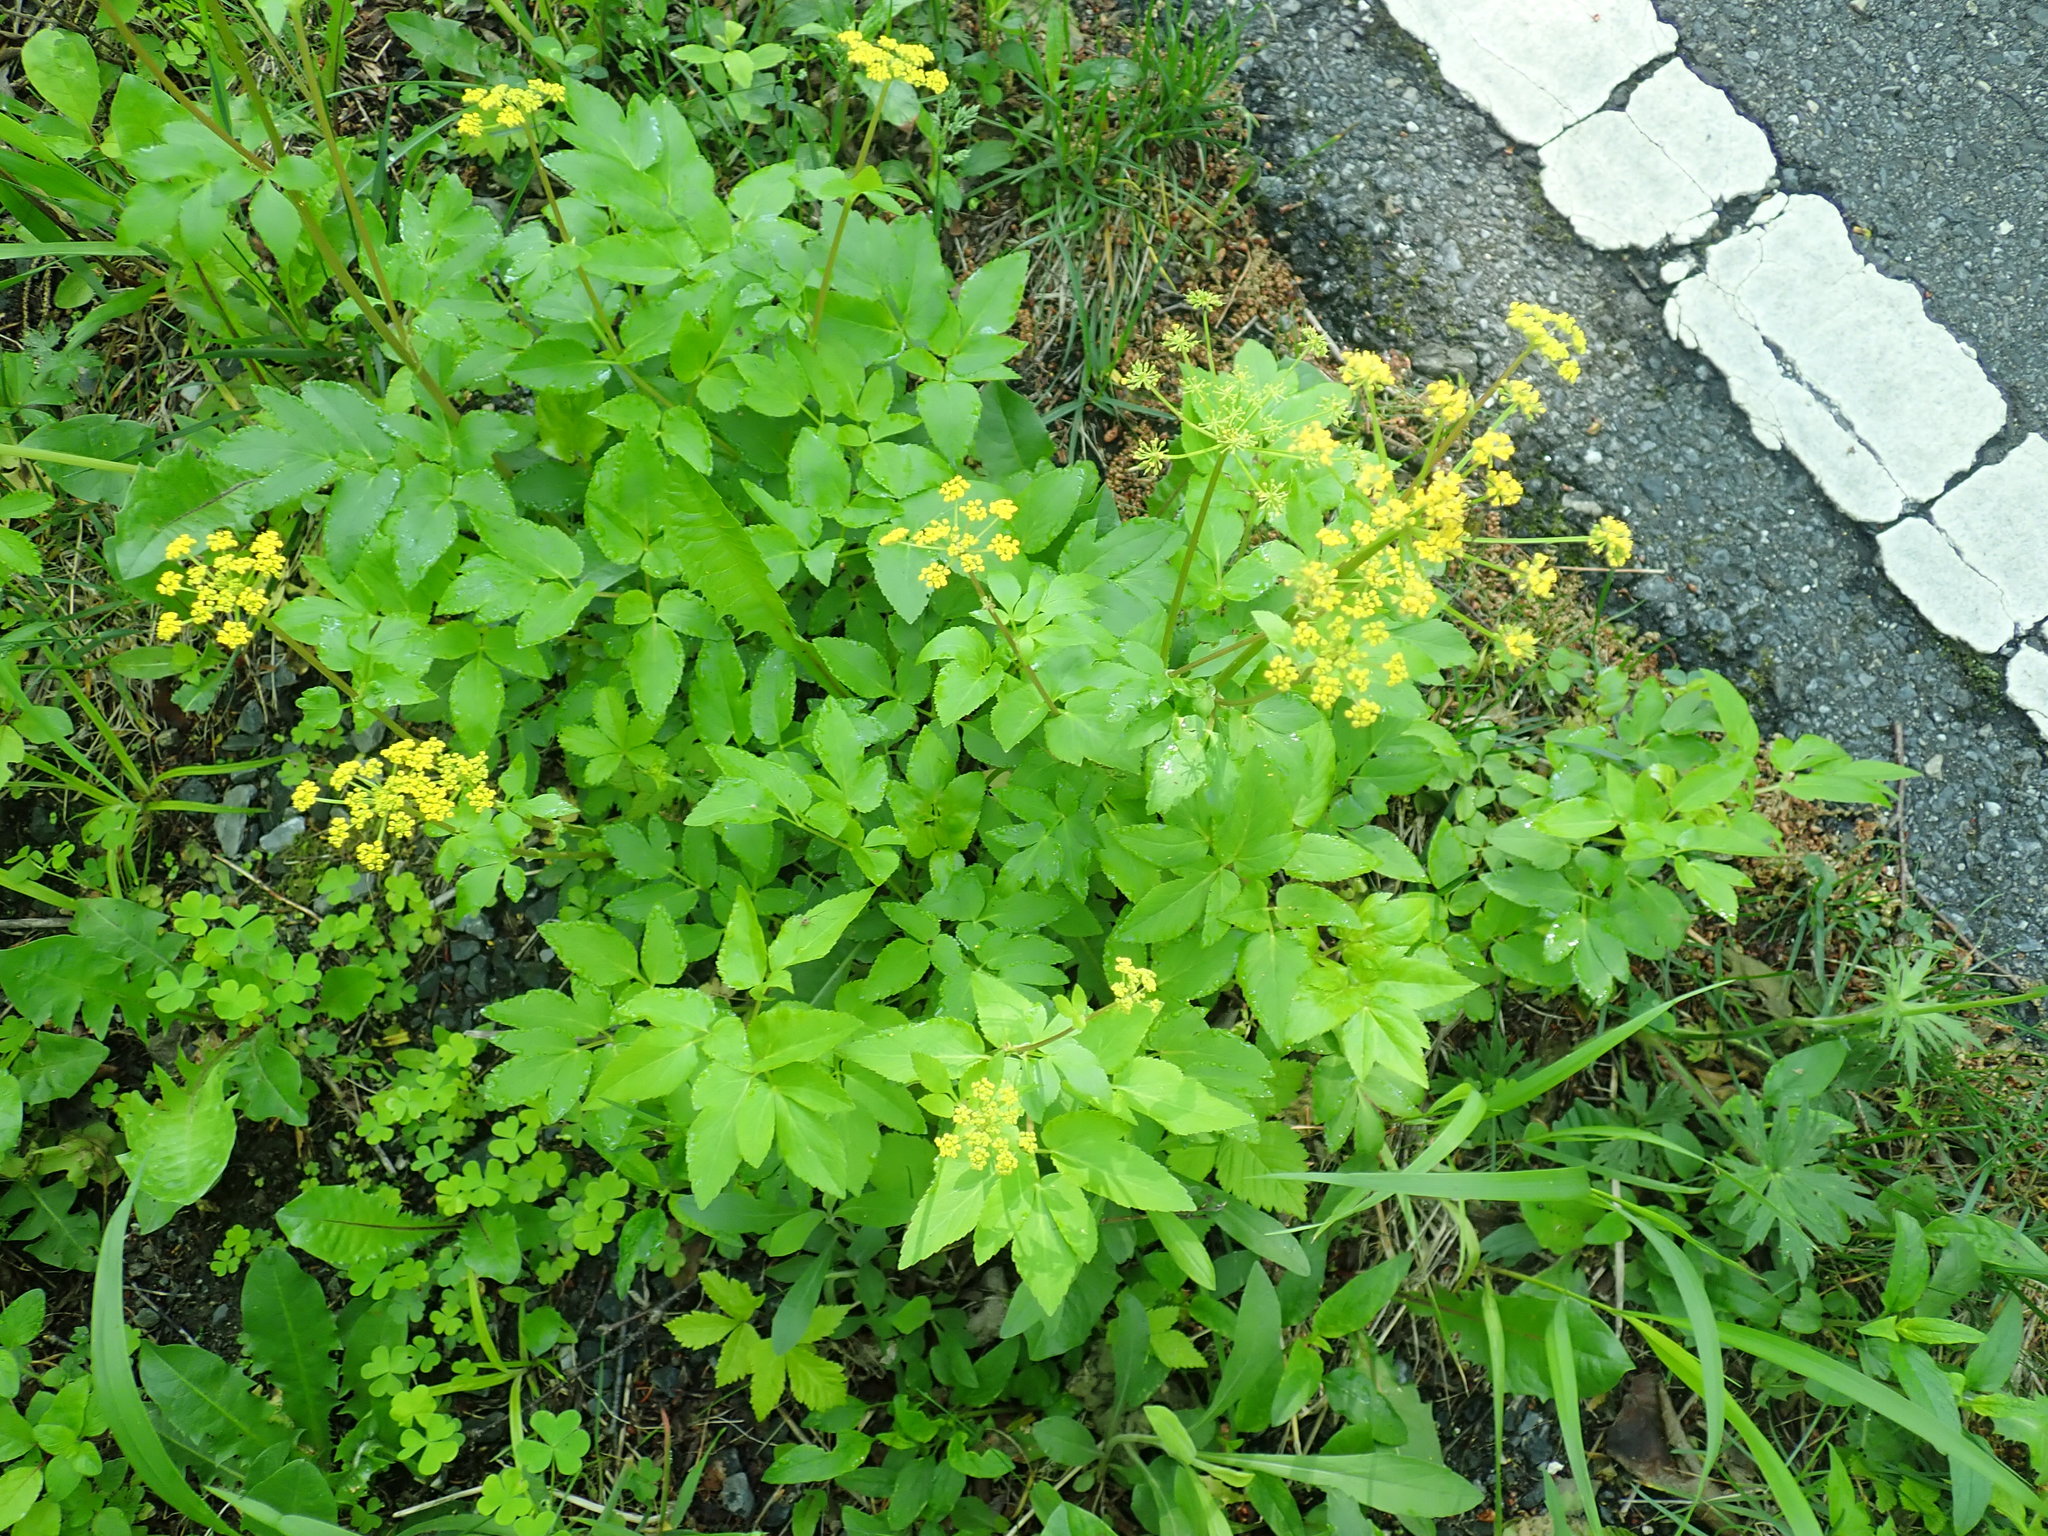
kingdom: Plantae
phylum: Tracheophyta
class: Magnoliopsida
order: Apiales
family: Apiaceae
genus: Zizia
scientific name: Zizia aurea
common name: Golden alexanders
